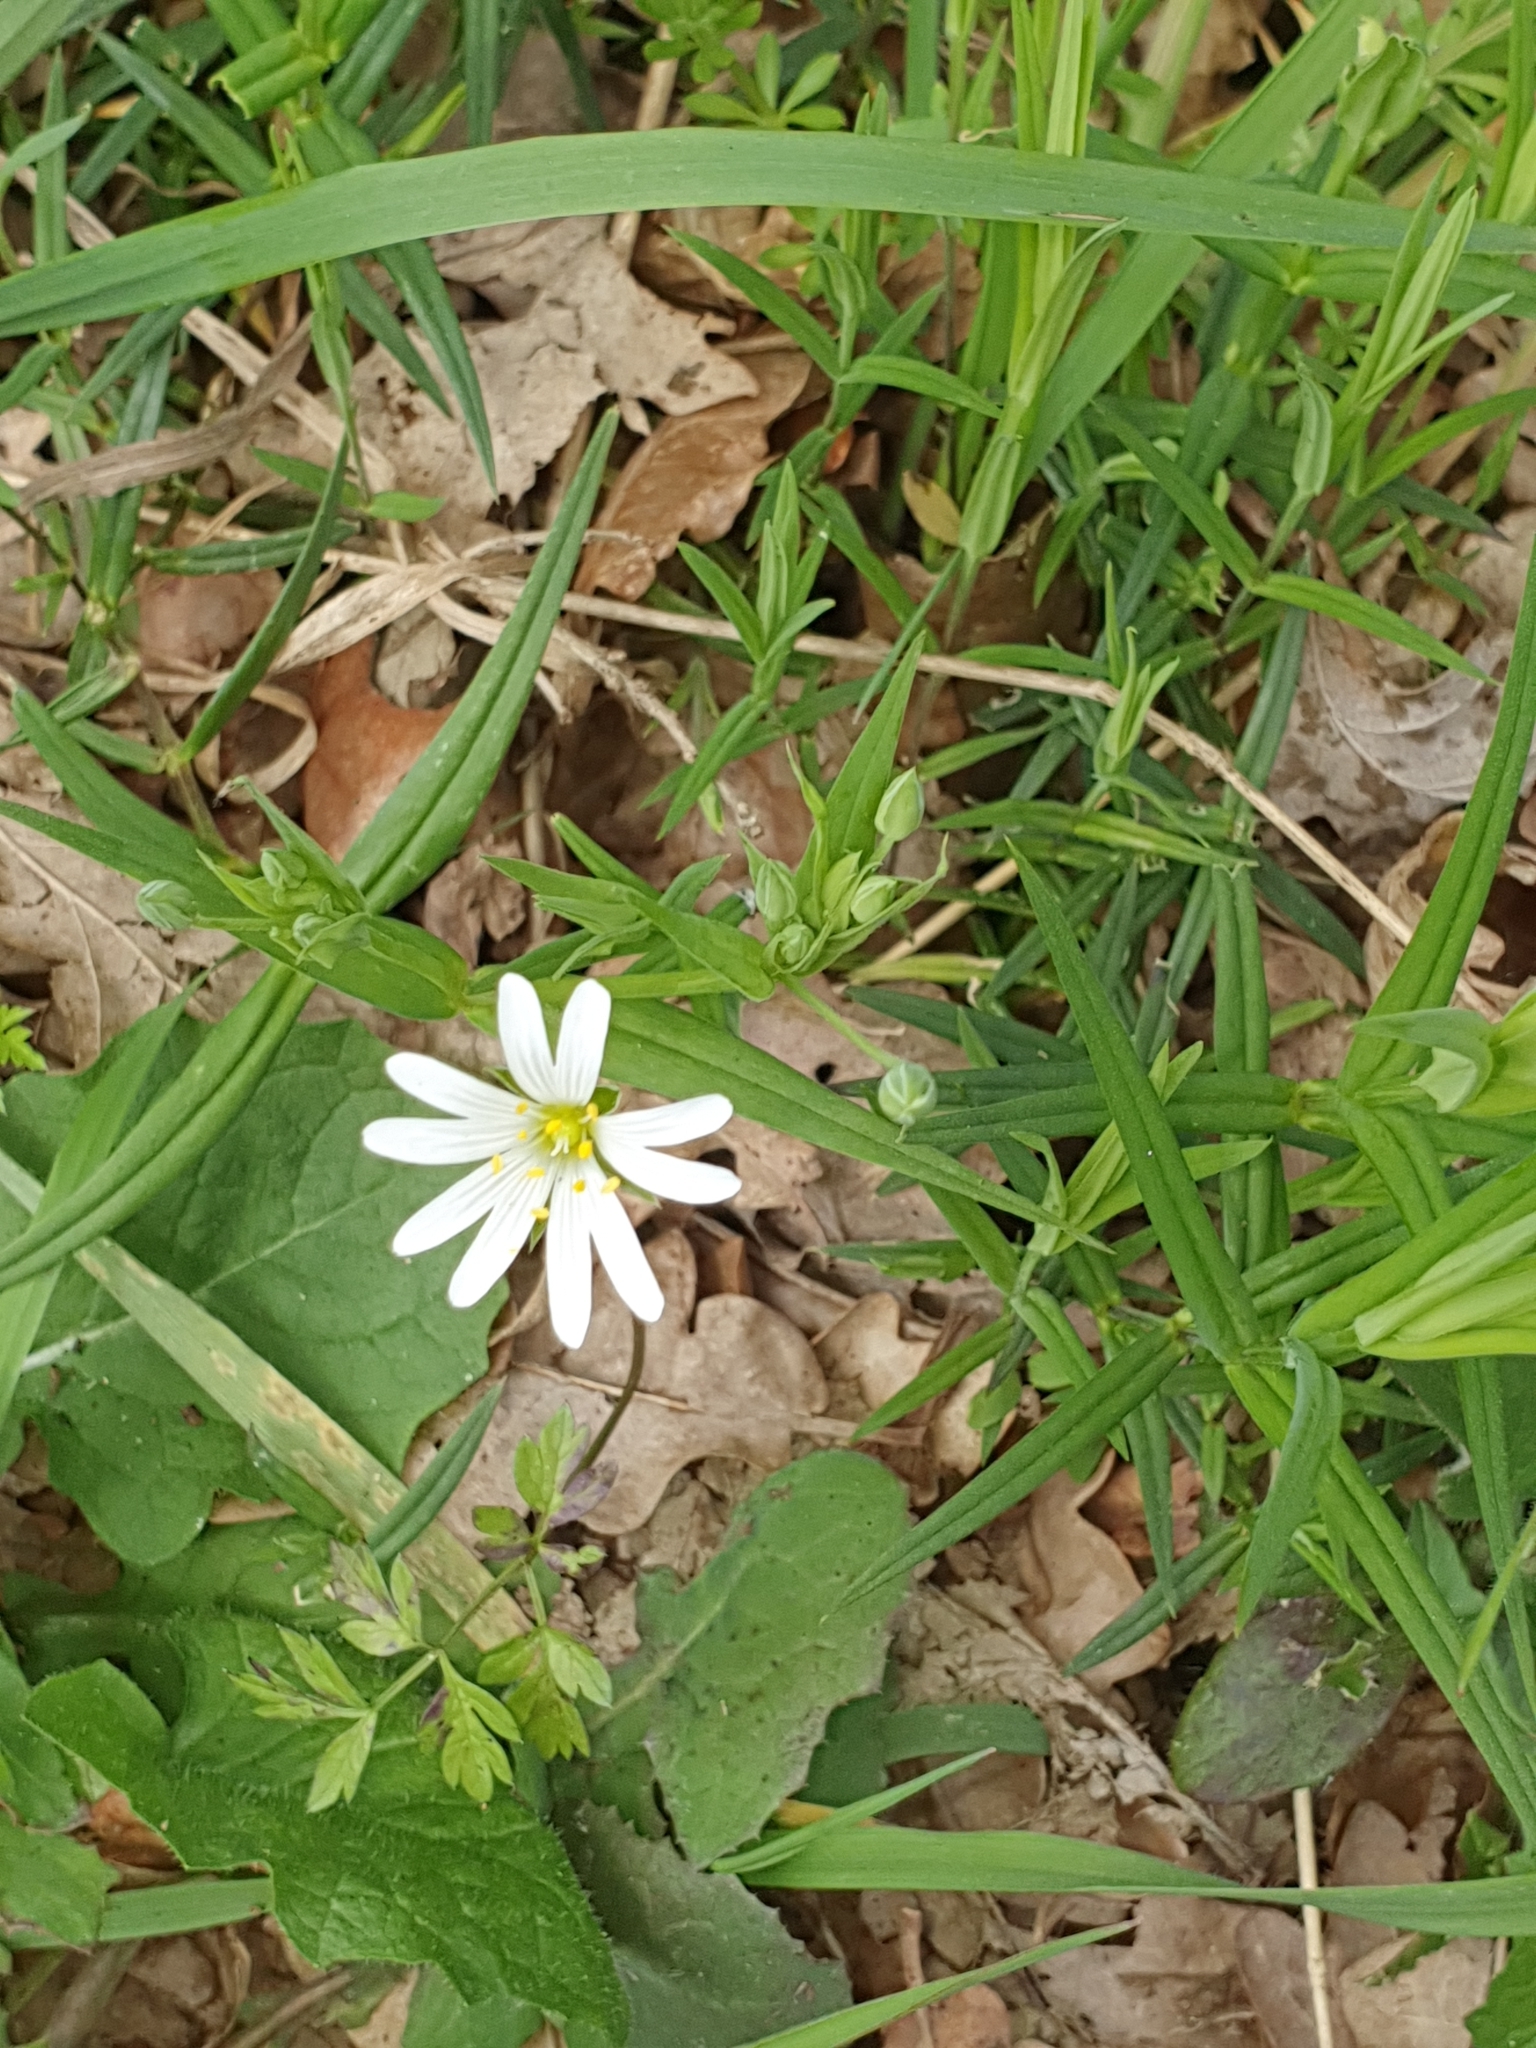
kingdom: Plantae
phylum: Tracheophyta
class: Magnoliopsida
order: Caryophyllales
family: Caryophyllaceae
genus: Rabelera
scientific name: Rabelera holostea
